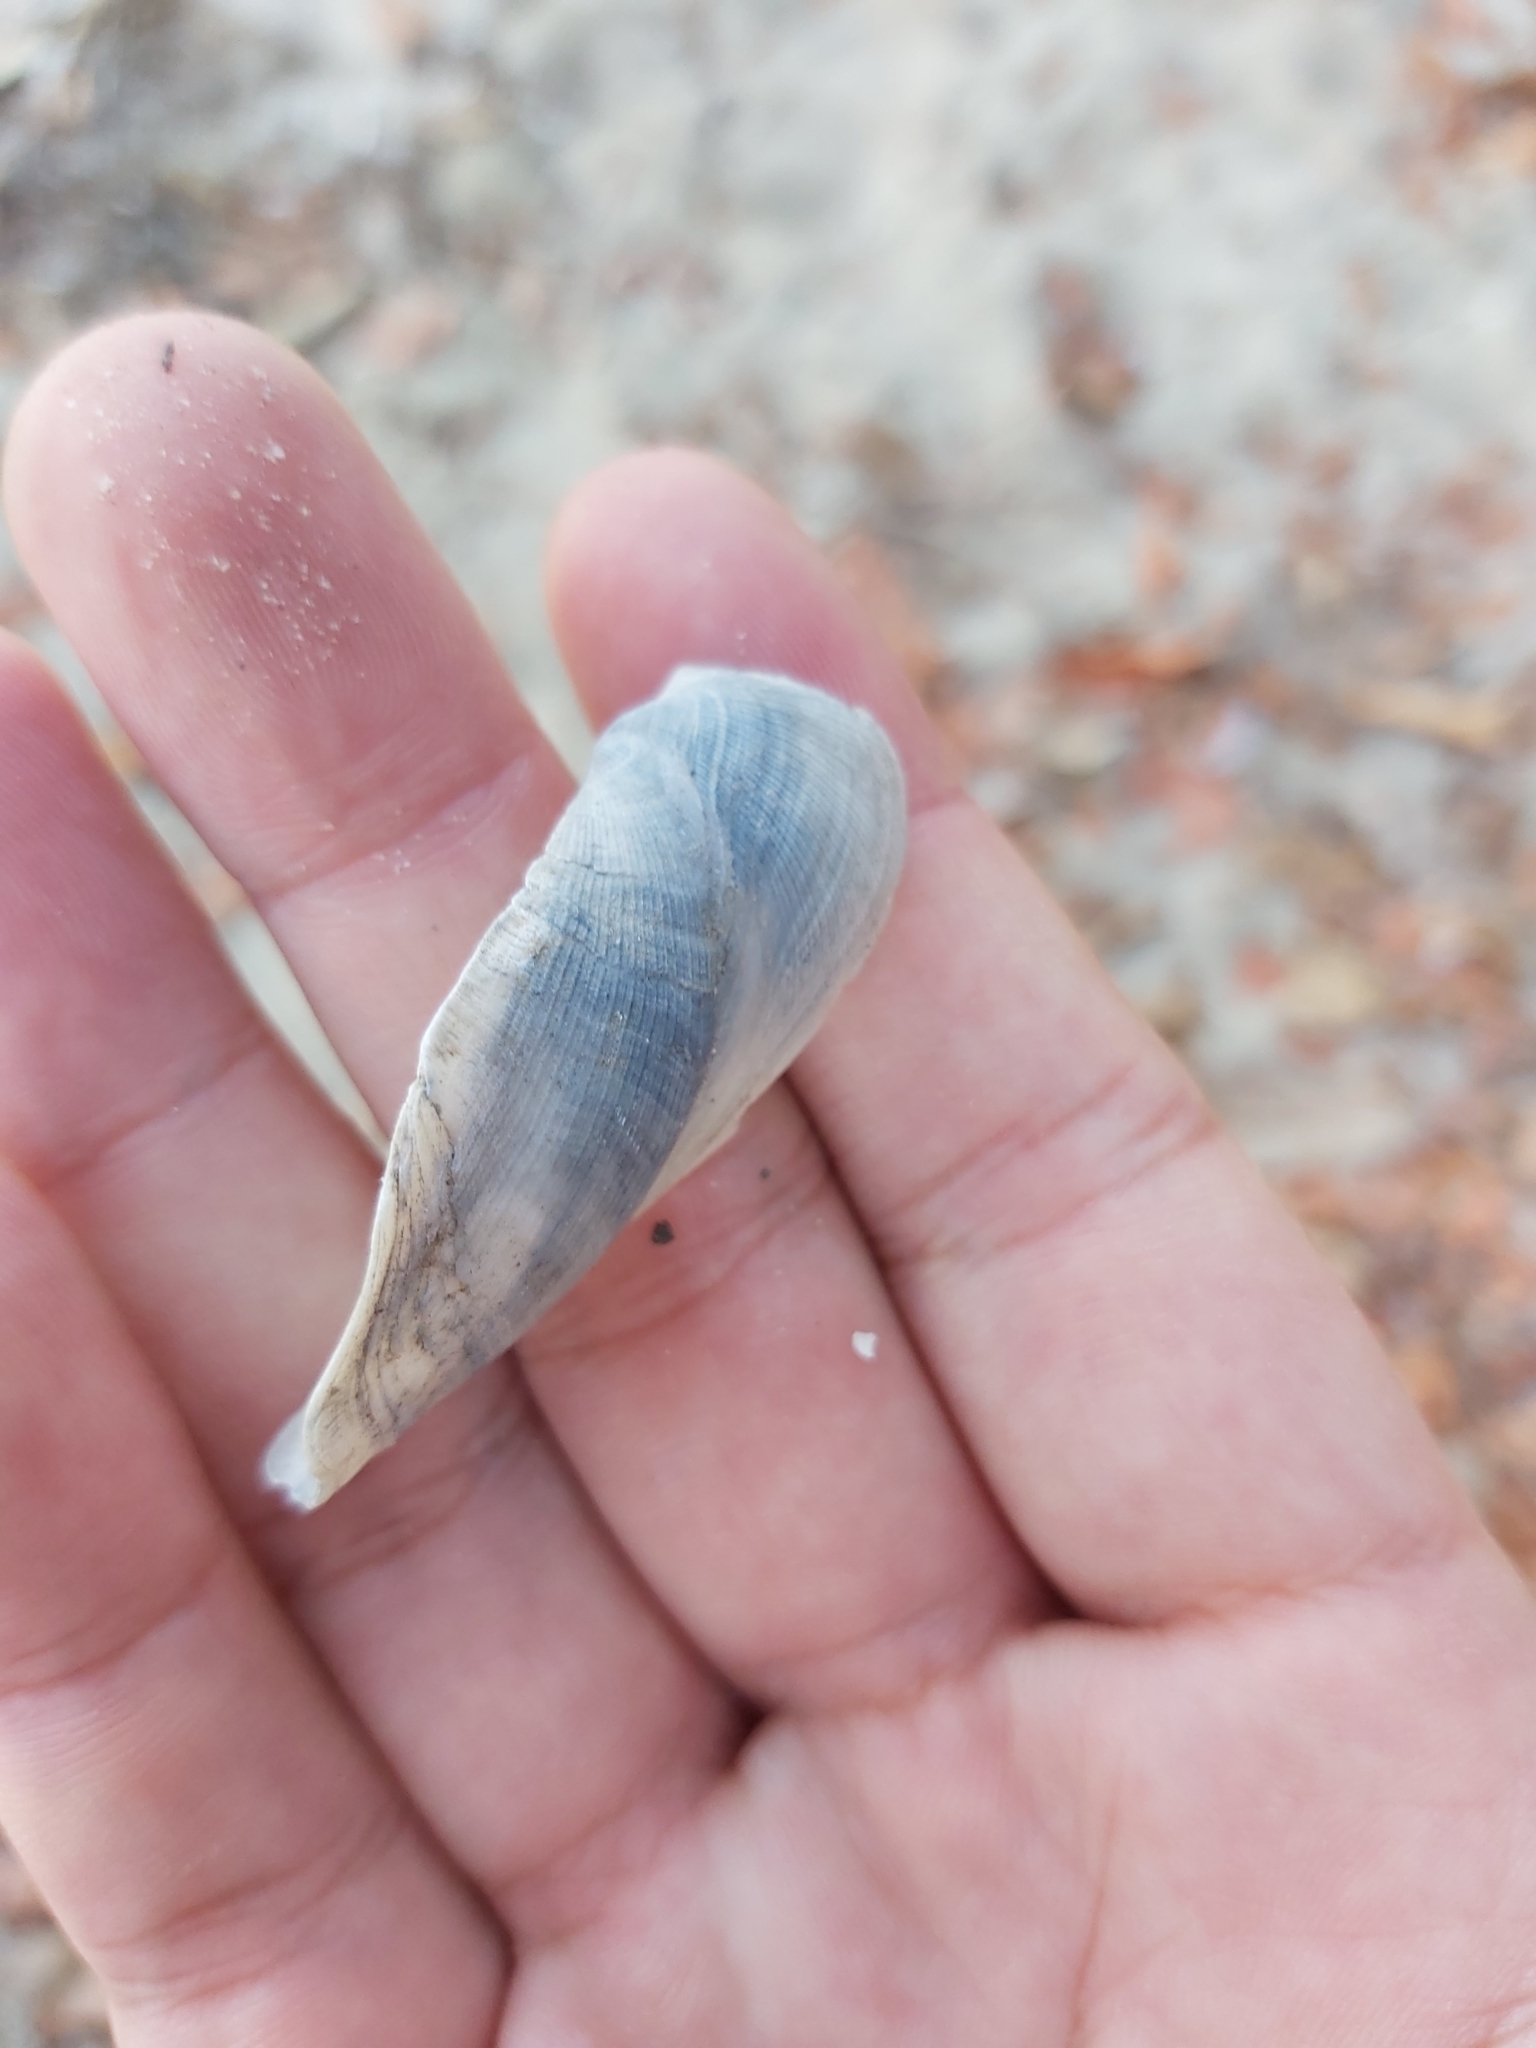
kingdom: Animalia
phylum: Mollusca
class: Bivalvia
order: Arcida
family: Arcidae
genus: Trisidos
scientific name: Trisidos tortuosa
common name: Propeller ark
